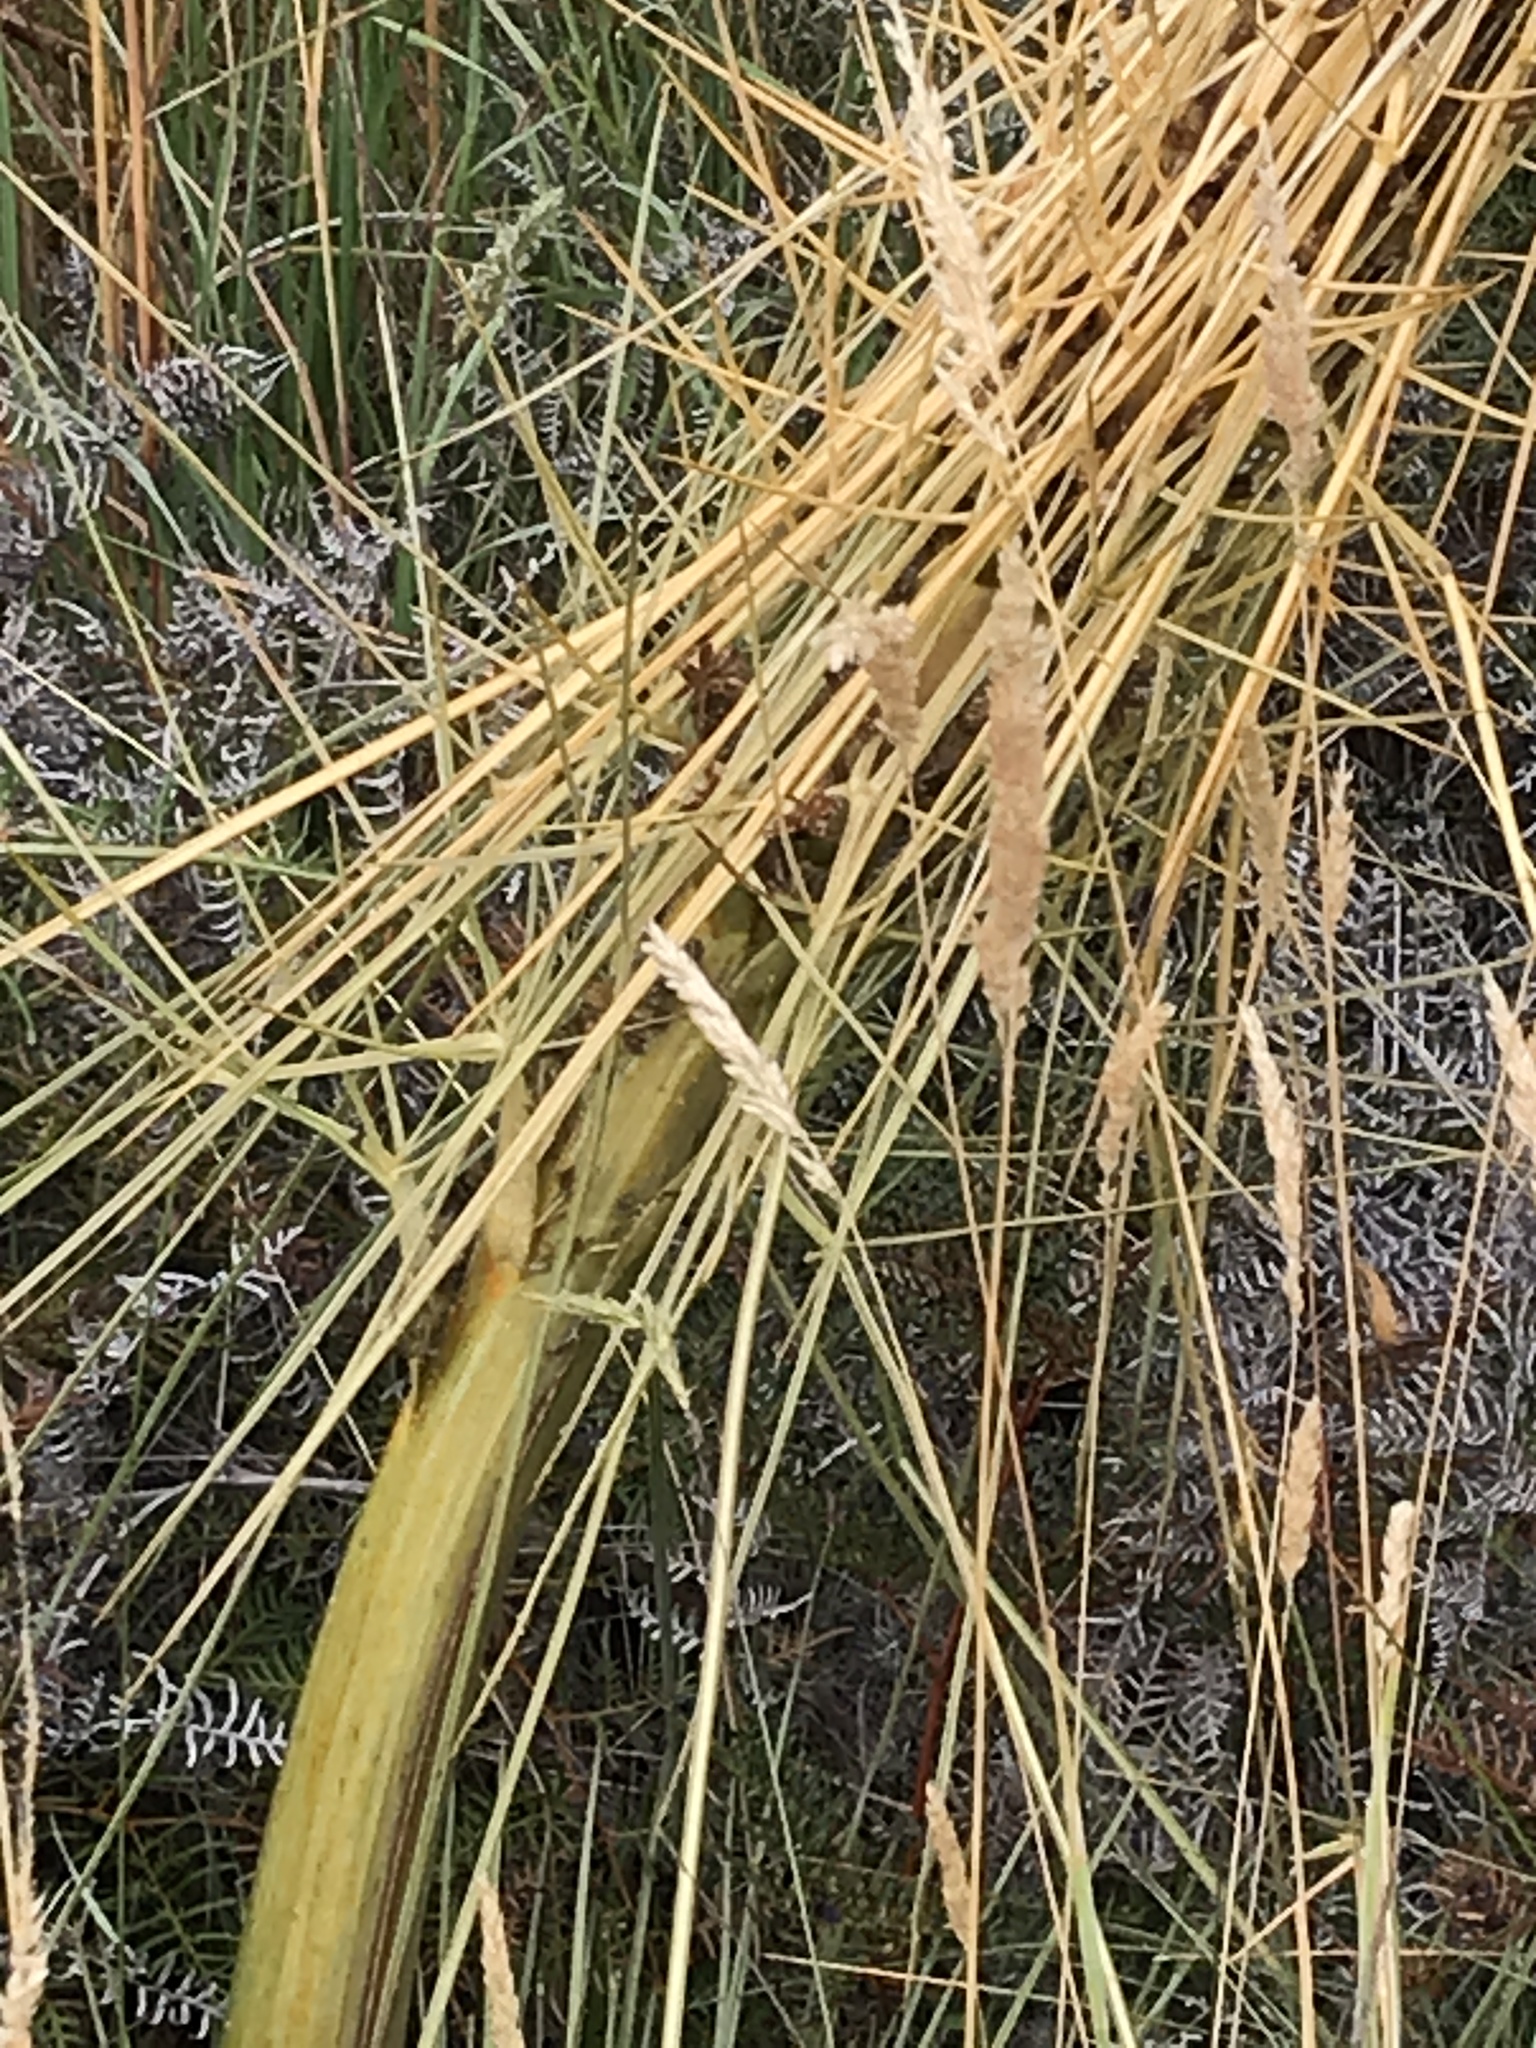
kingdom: Plantae
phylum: Tracheophyta
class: Magnoliopsida
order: Apiales
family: Apiaceae
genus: Aciphylla
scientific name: Aciphylla subflabellata
